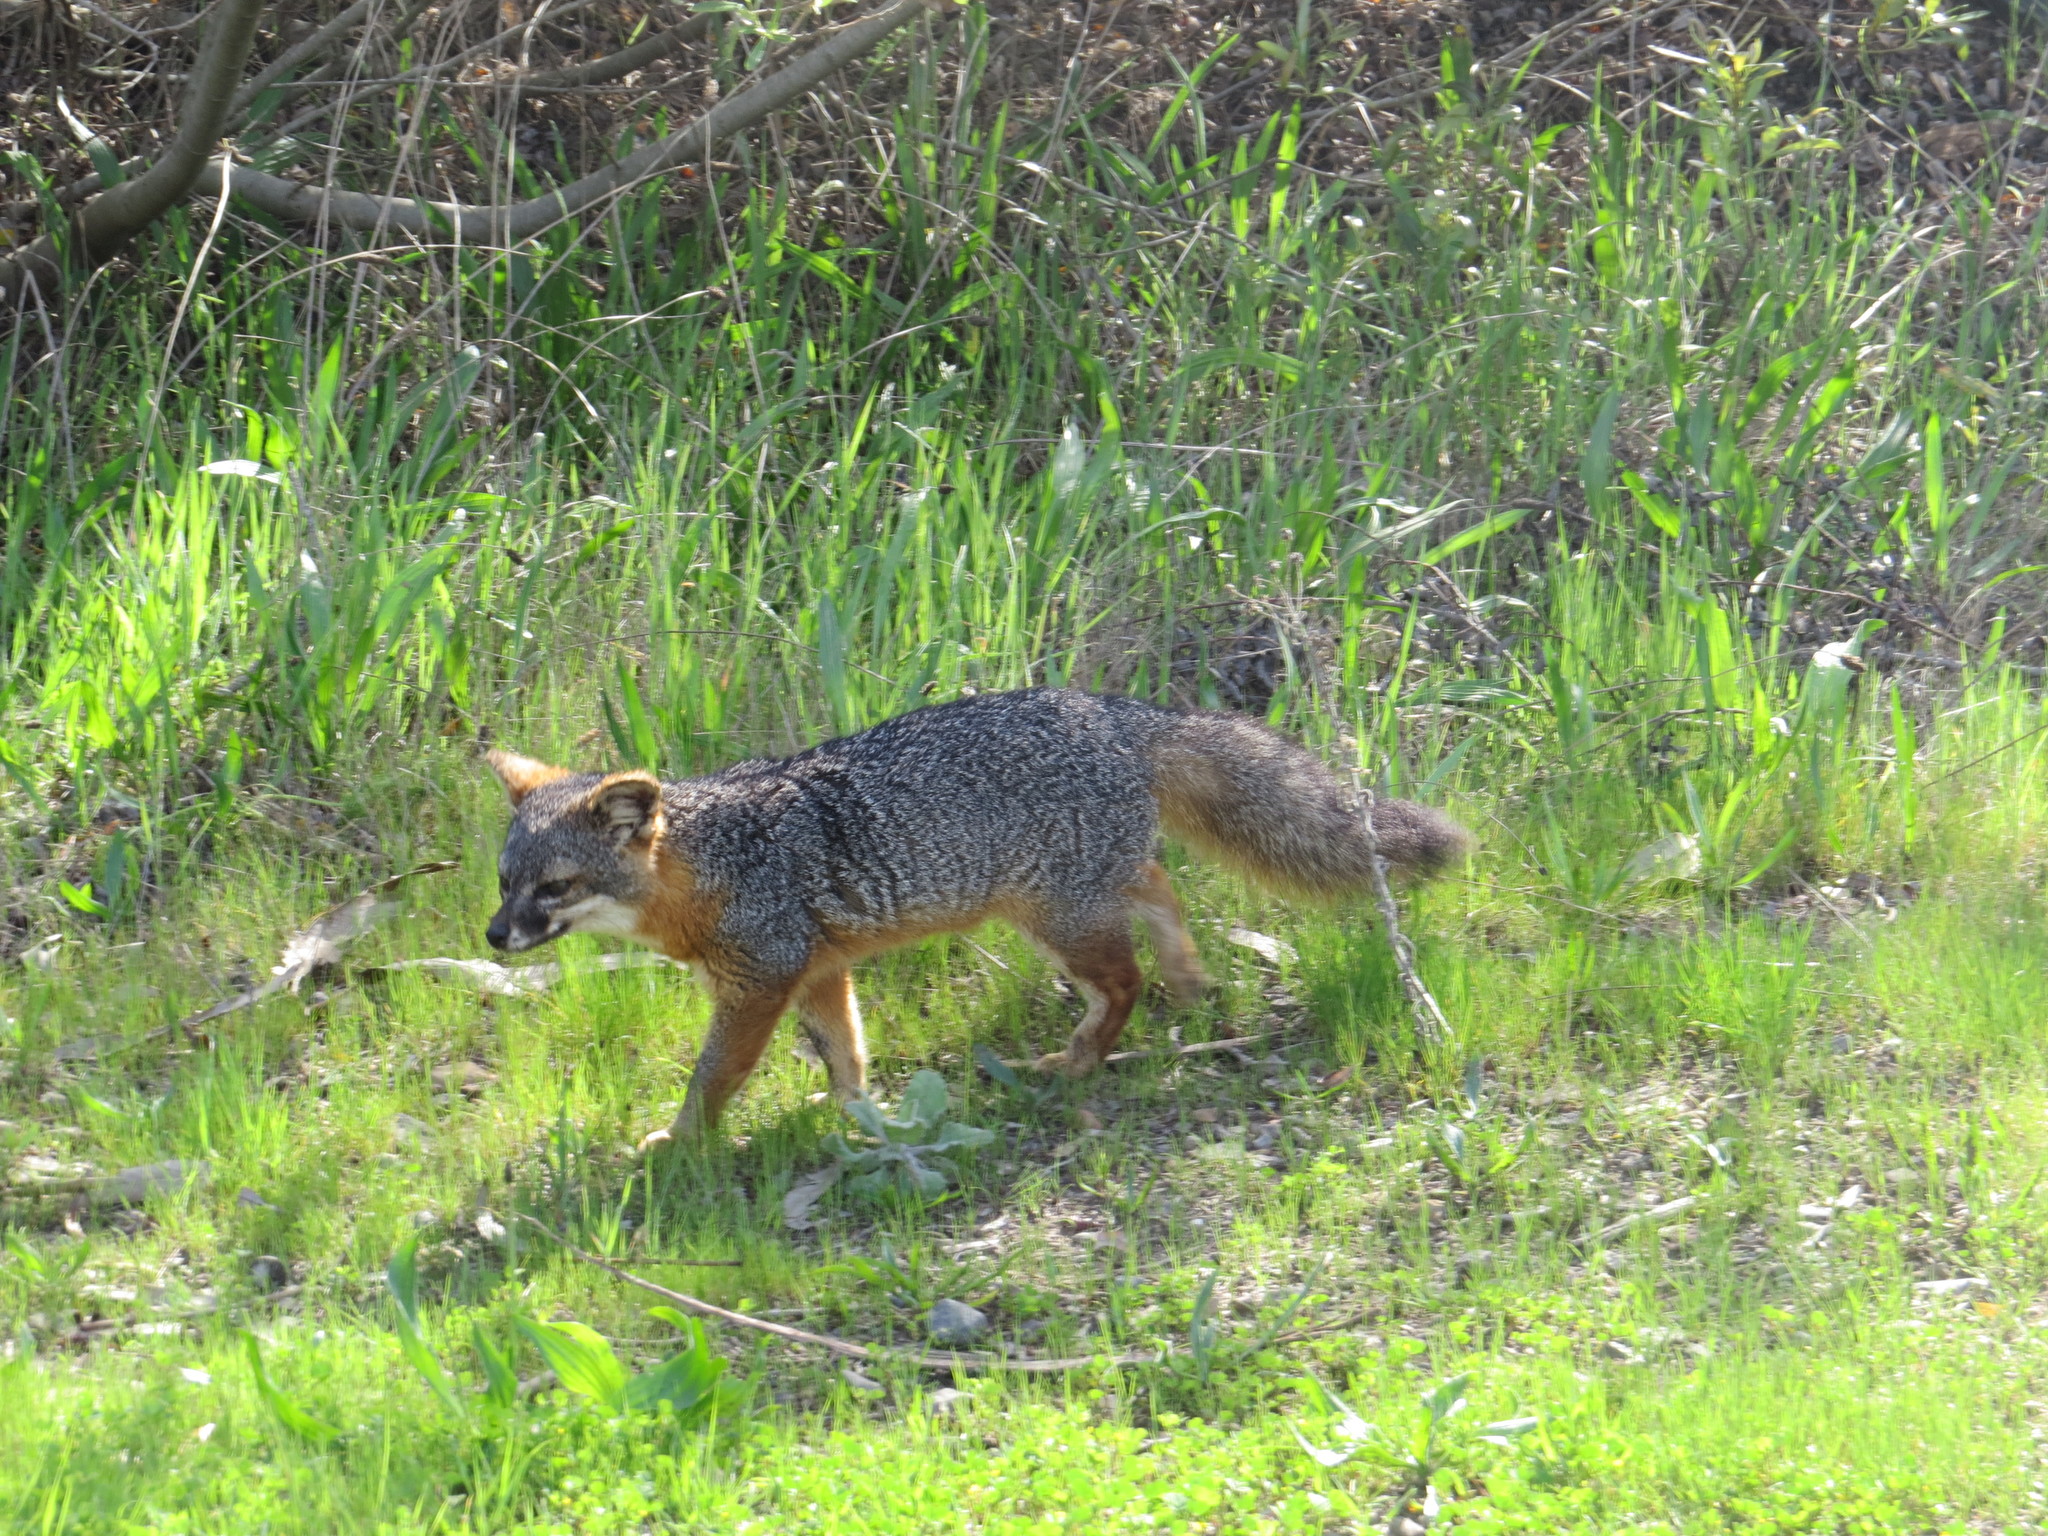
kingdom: Animalia
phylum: Chordata
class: Mammalia
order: Carnivora
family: Canidae
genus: Urocyon
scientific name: Urocyon littoralis
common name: Island gray fox
